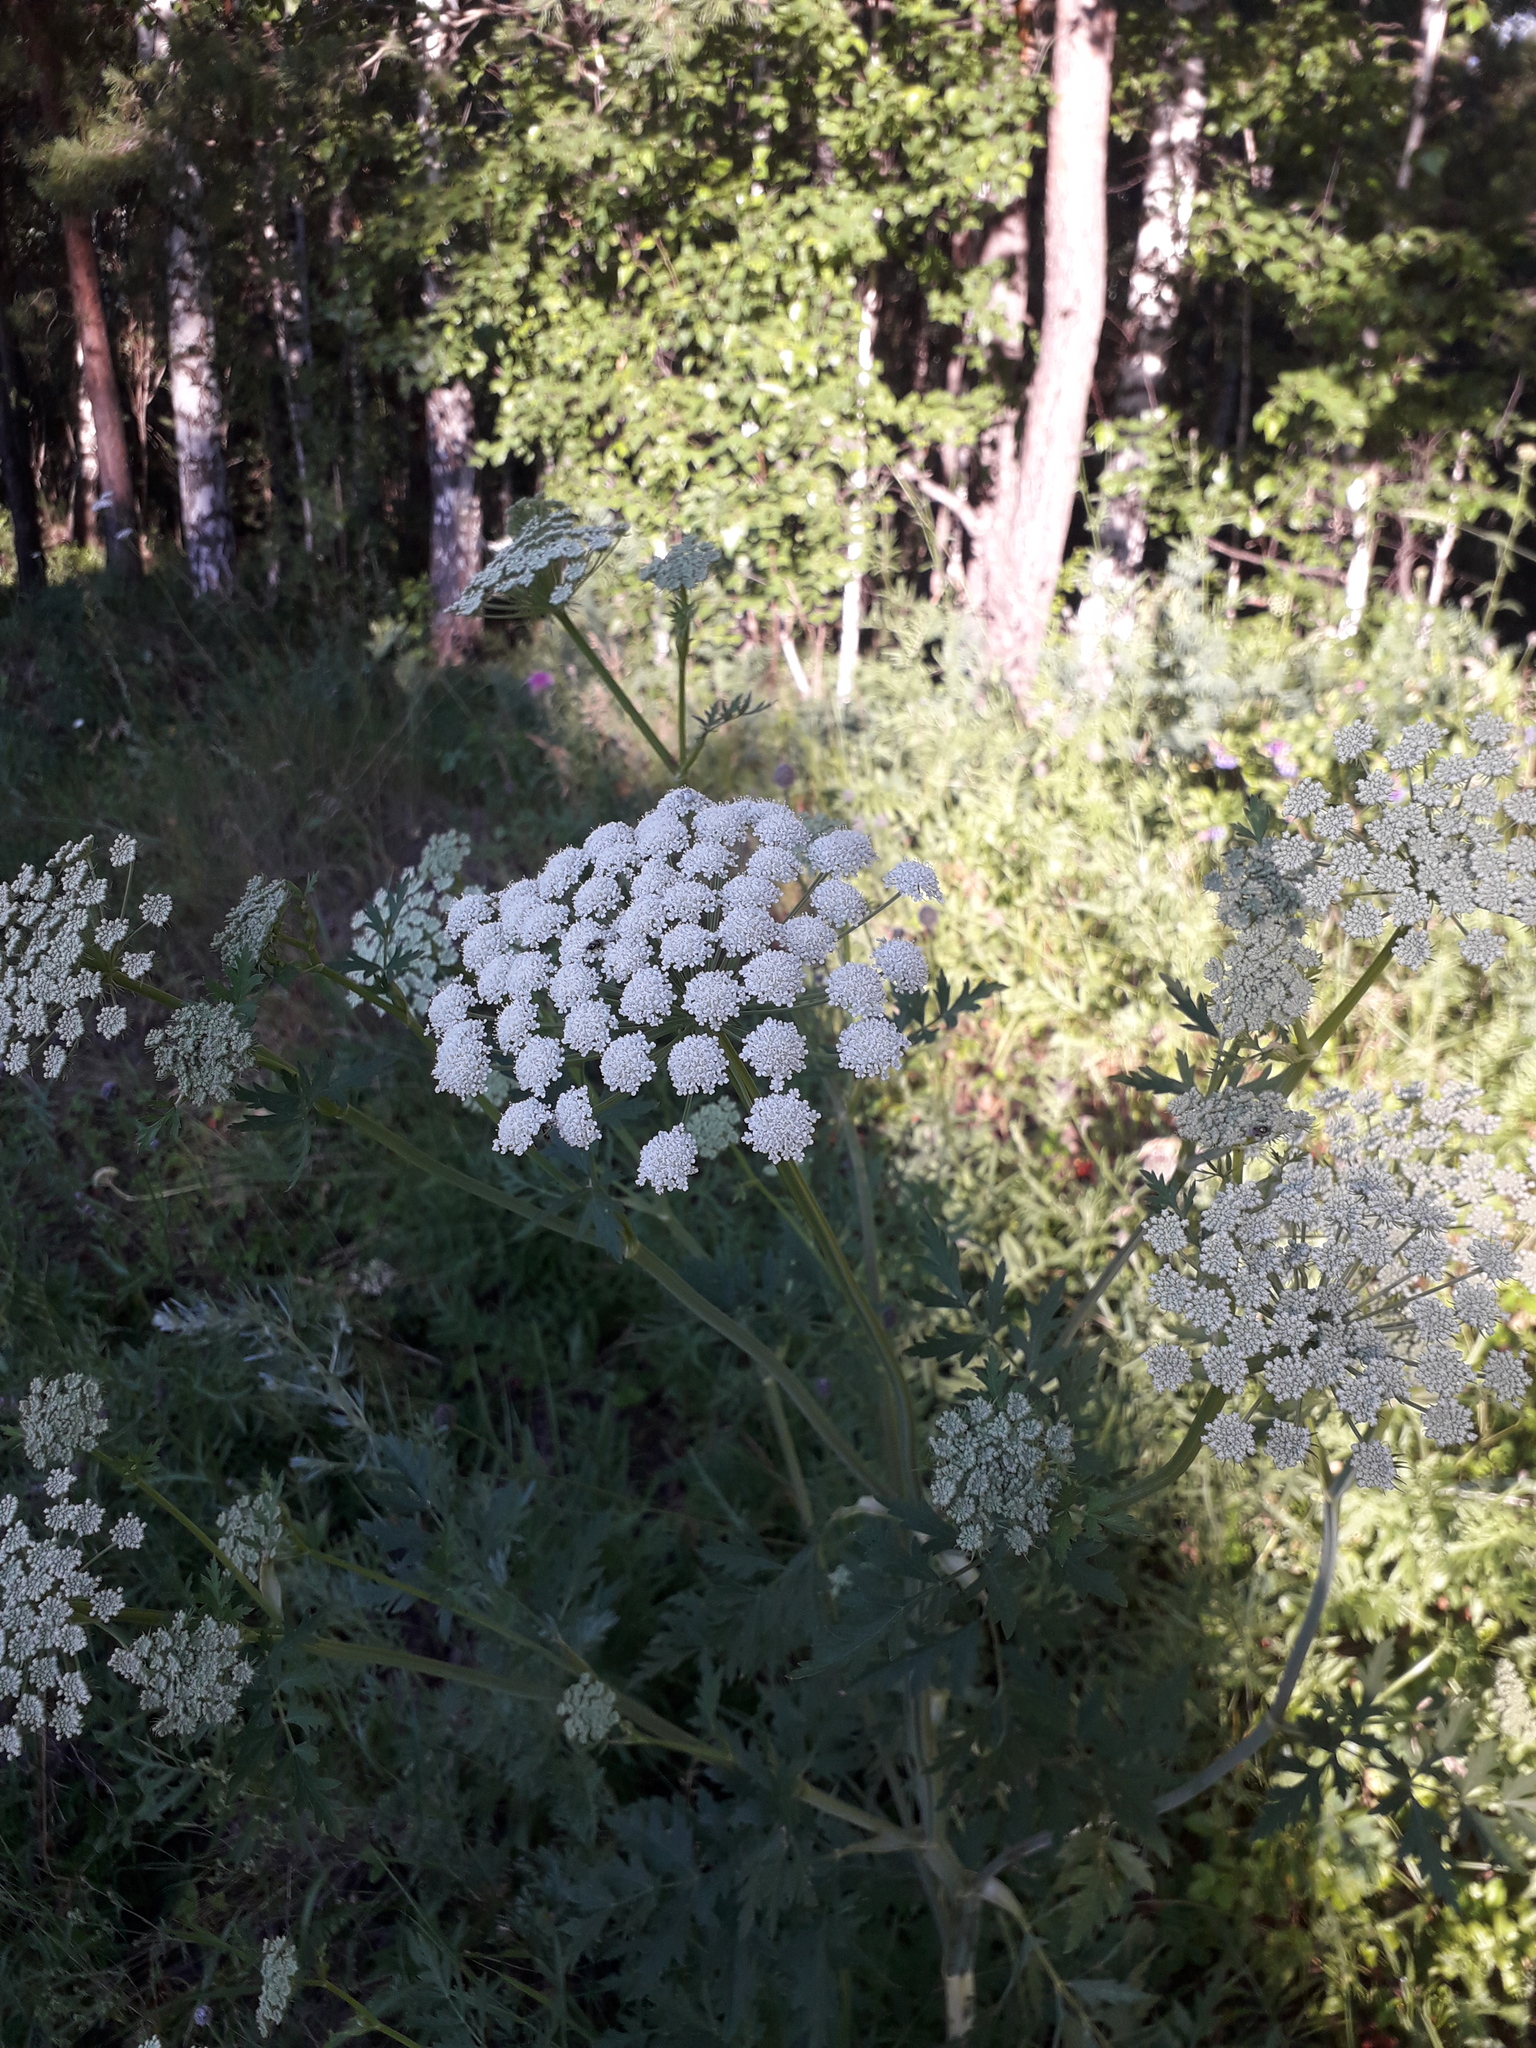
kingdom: Plantae
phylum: Tracheophyta
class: Magnoliopsida
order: Apiales
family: Apiaceae
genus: Seseli
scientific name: Seseli libanotis
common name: Mooncarrot
